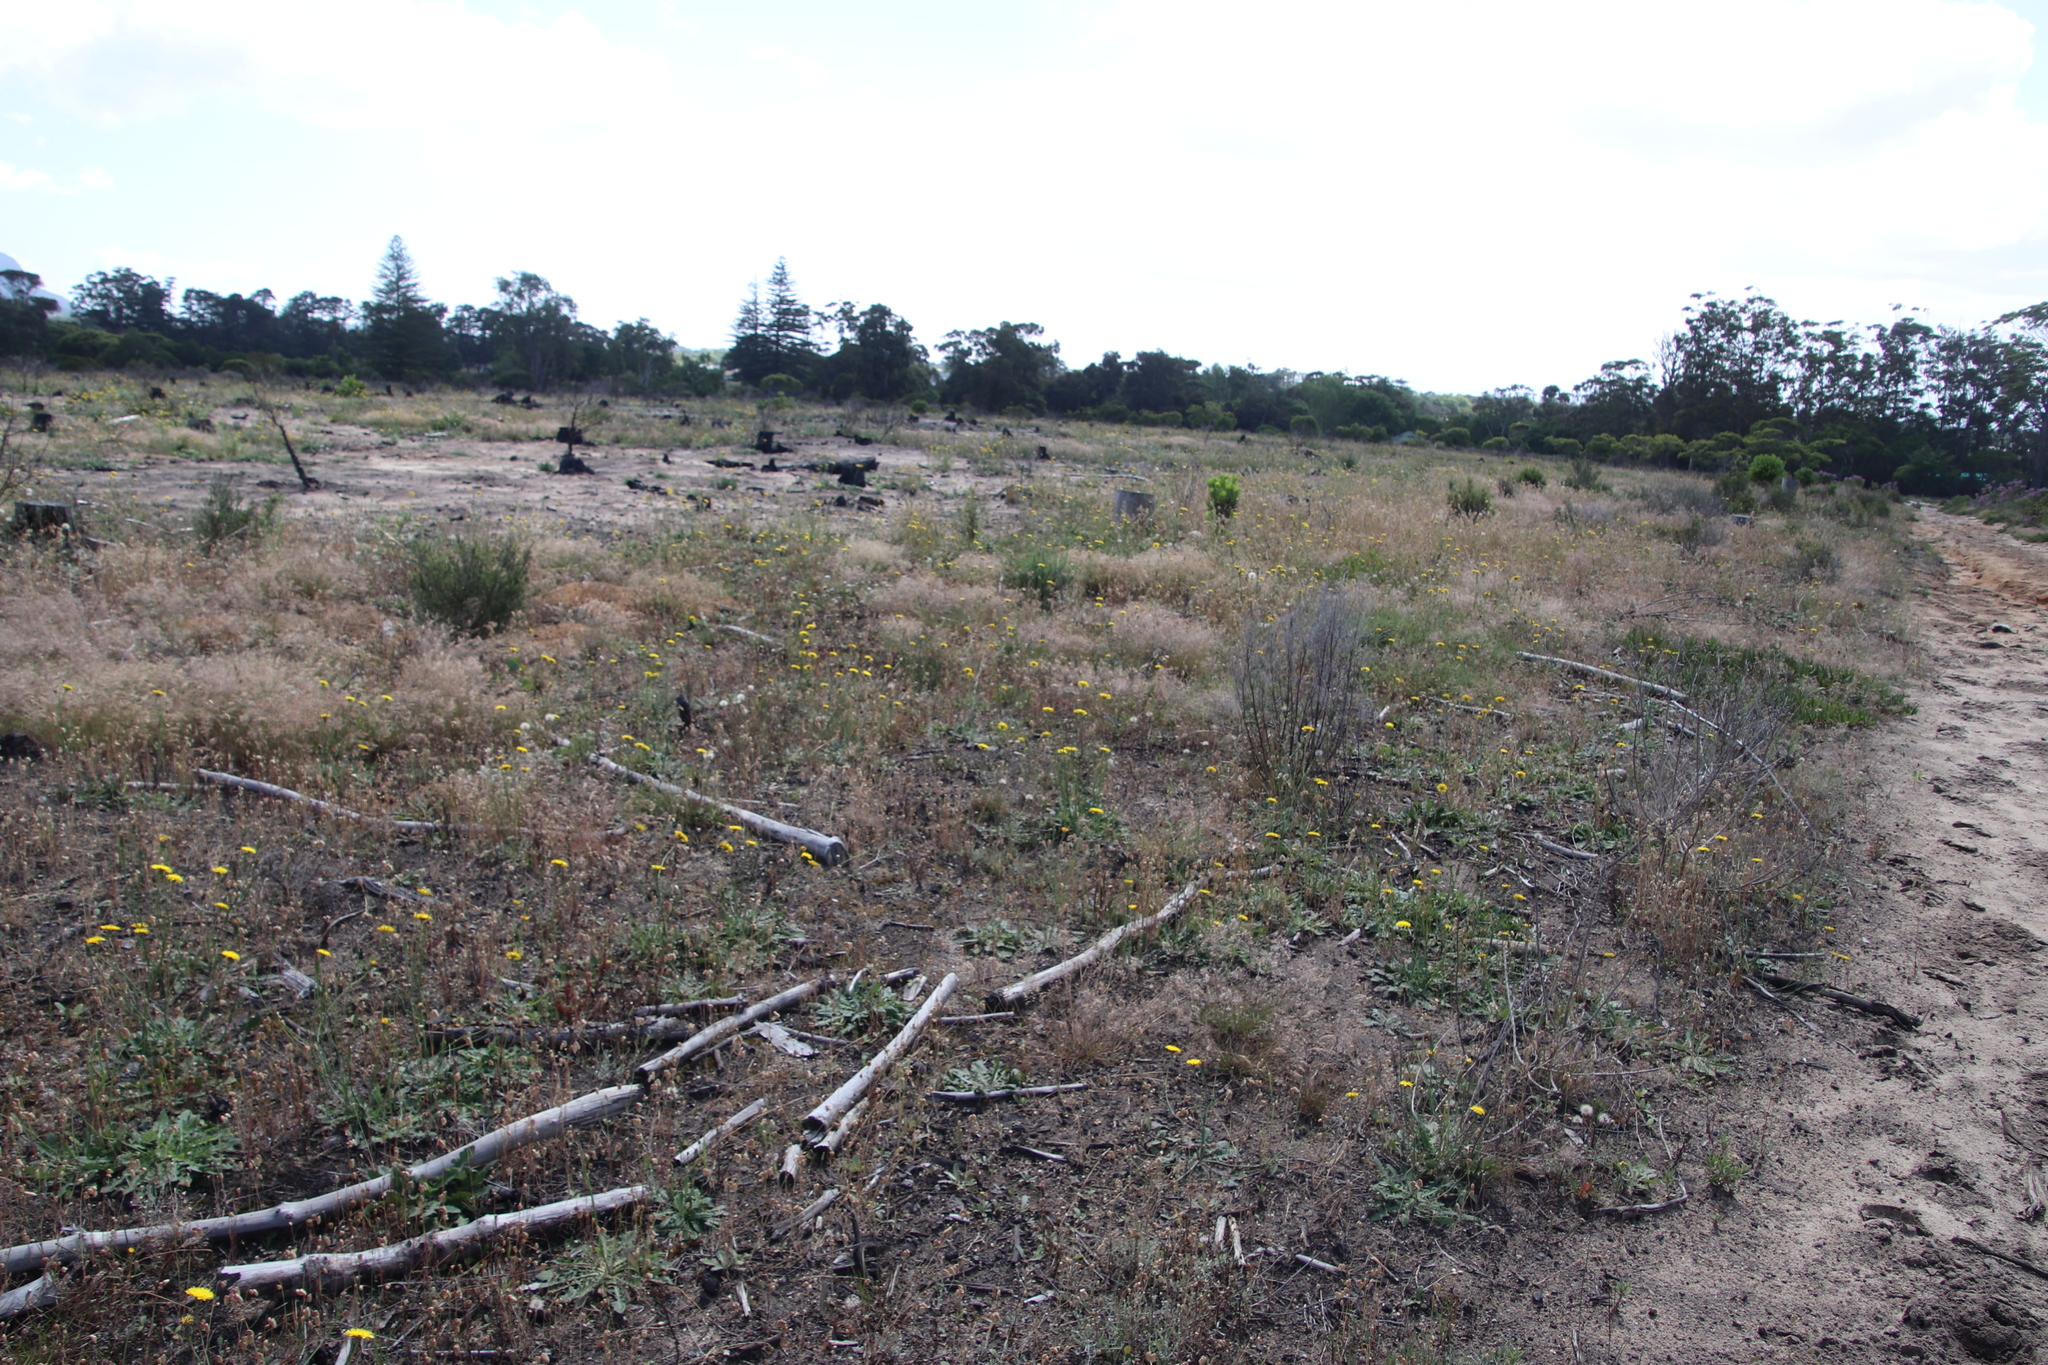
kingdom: Plantae
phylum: Tracheophyta
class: Magnoliopsida
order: Asterales
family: Asteraceae
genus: Hypochaeris
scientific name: Hypochaeris radicata
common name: Flatweed
